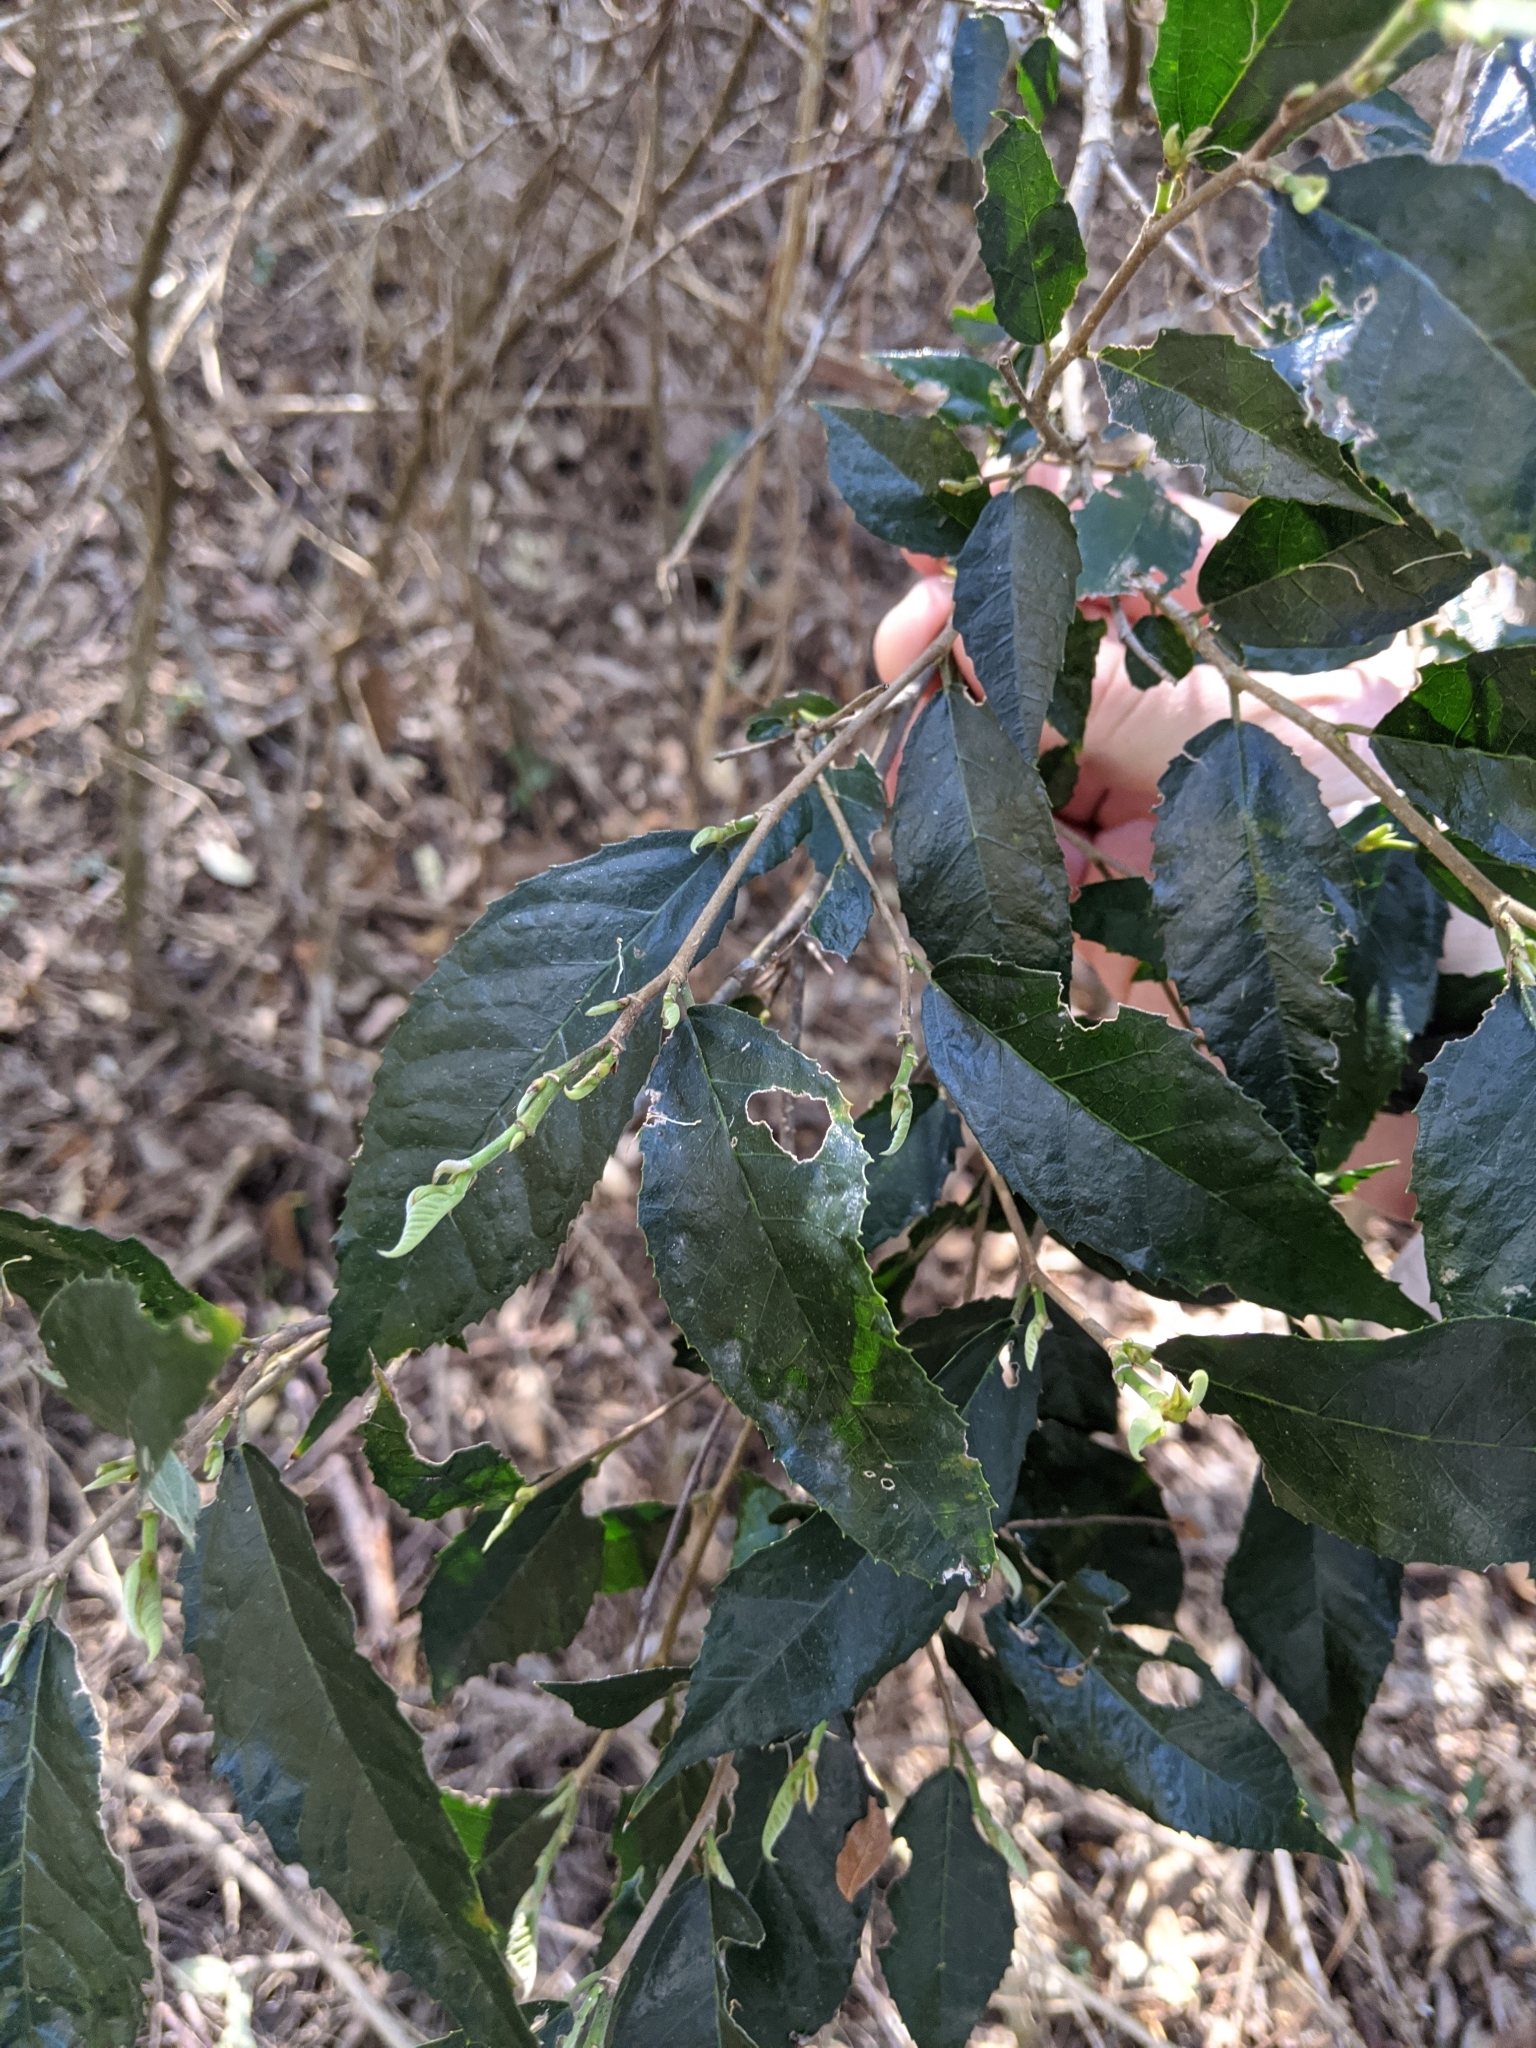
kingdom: Plantae
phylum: Tracheophyta
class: Magnoliopsida
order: Rosales
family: Moraceae
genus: Paratrophis
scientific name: Paratrophis pendulina
